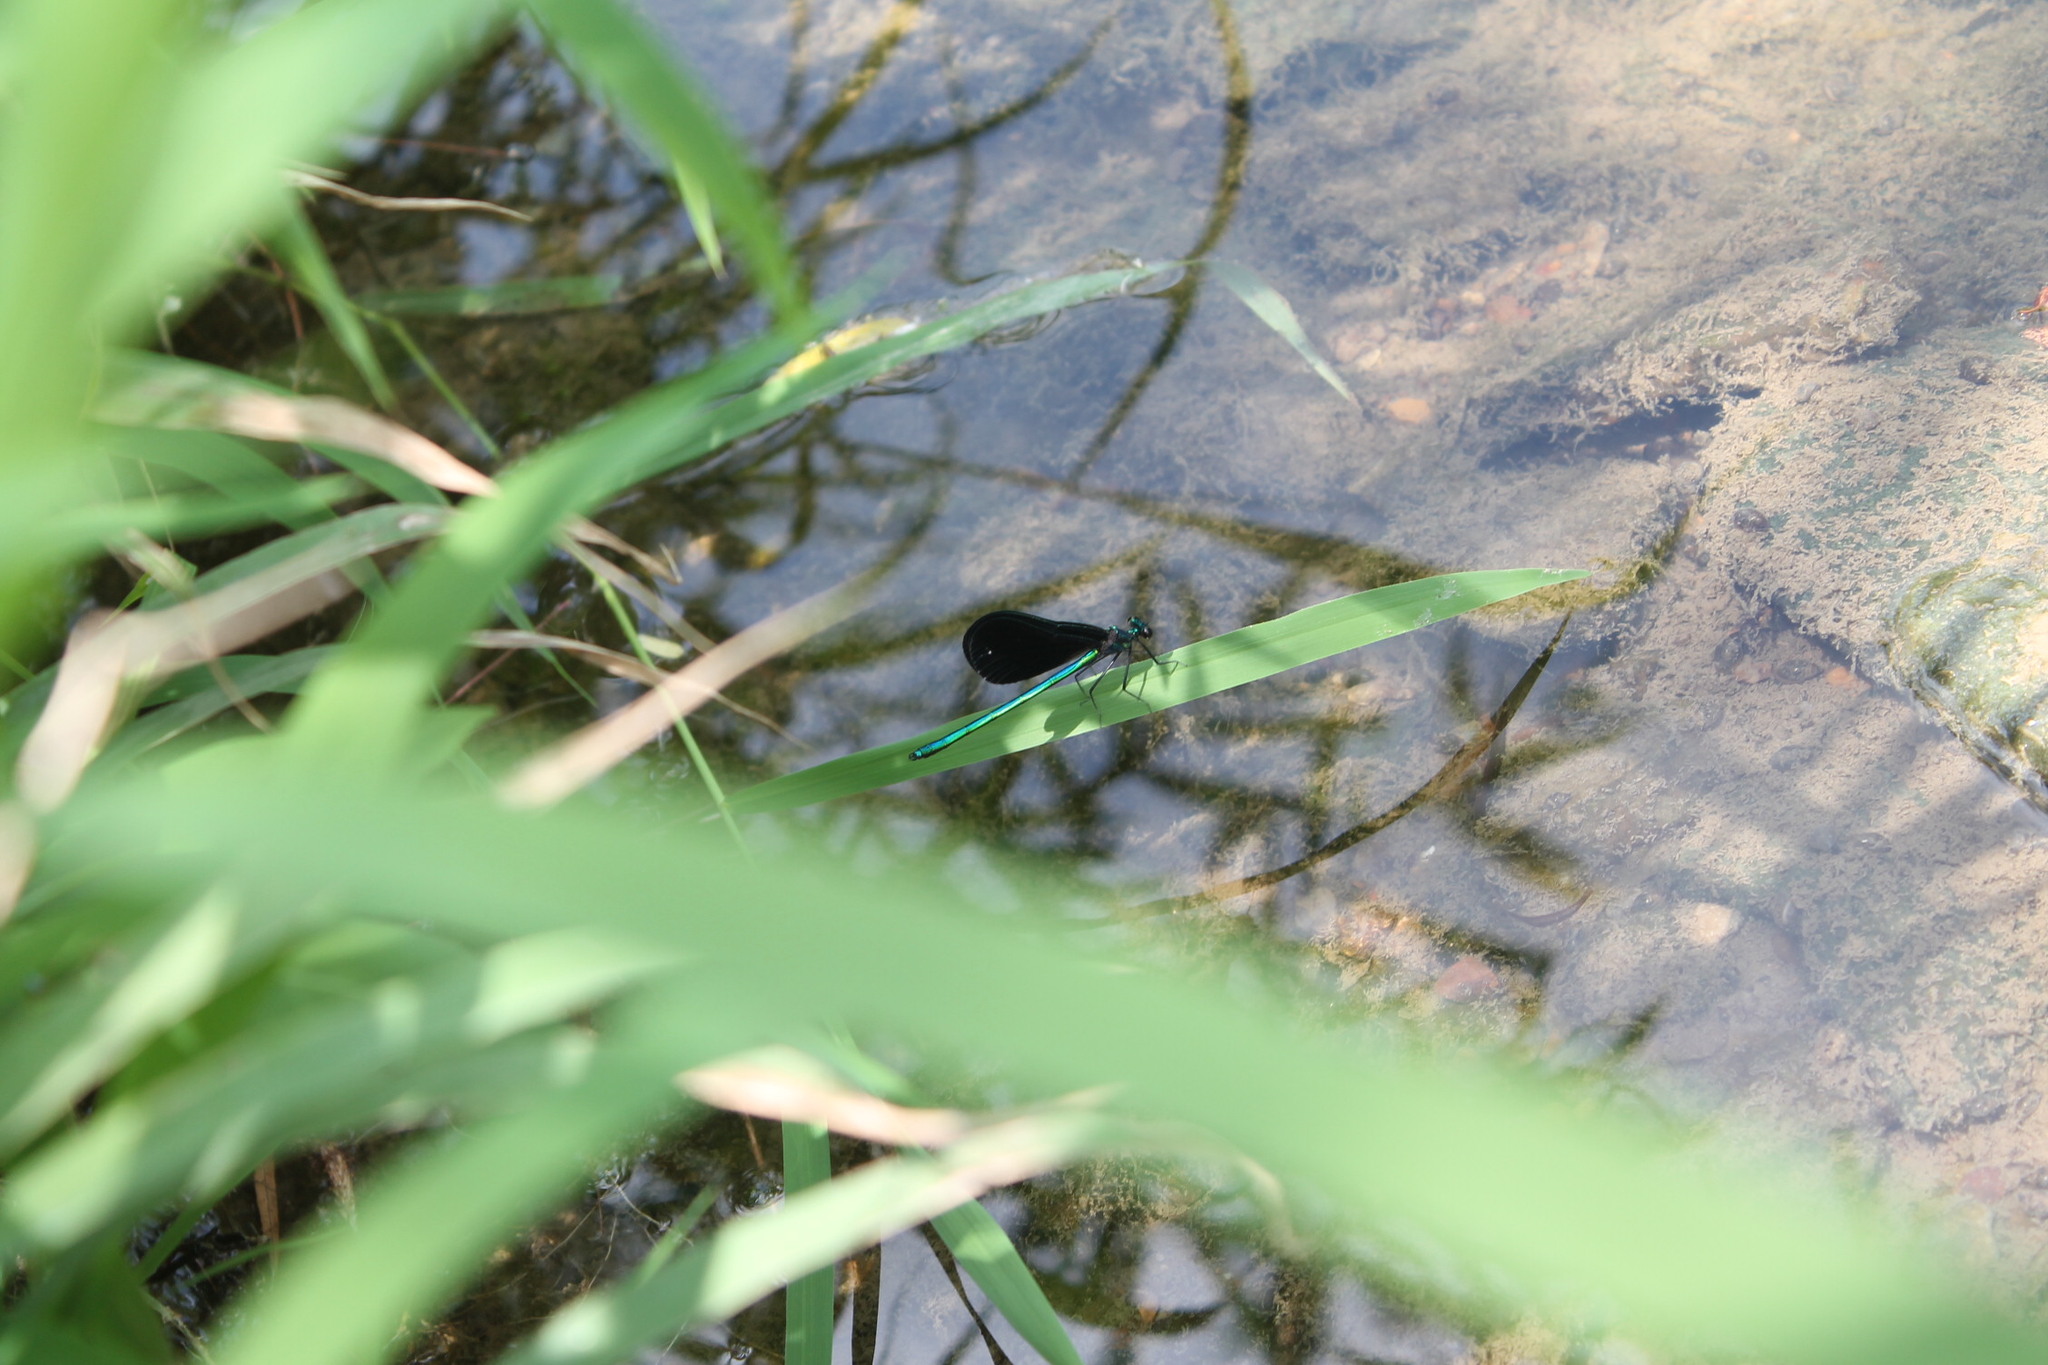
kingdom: Animalia
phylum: Arthropoda
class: Insecta
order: Odonata
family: Calopterygidae
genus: Calopteryx
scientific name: Calopteryx maculata
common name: Ebony jewelwing
